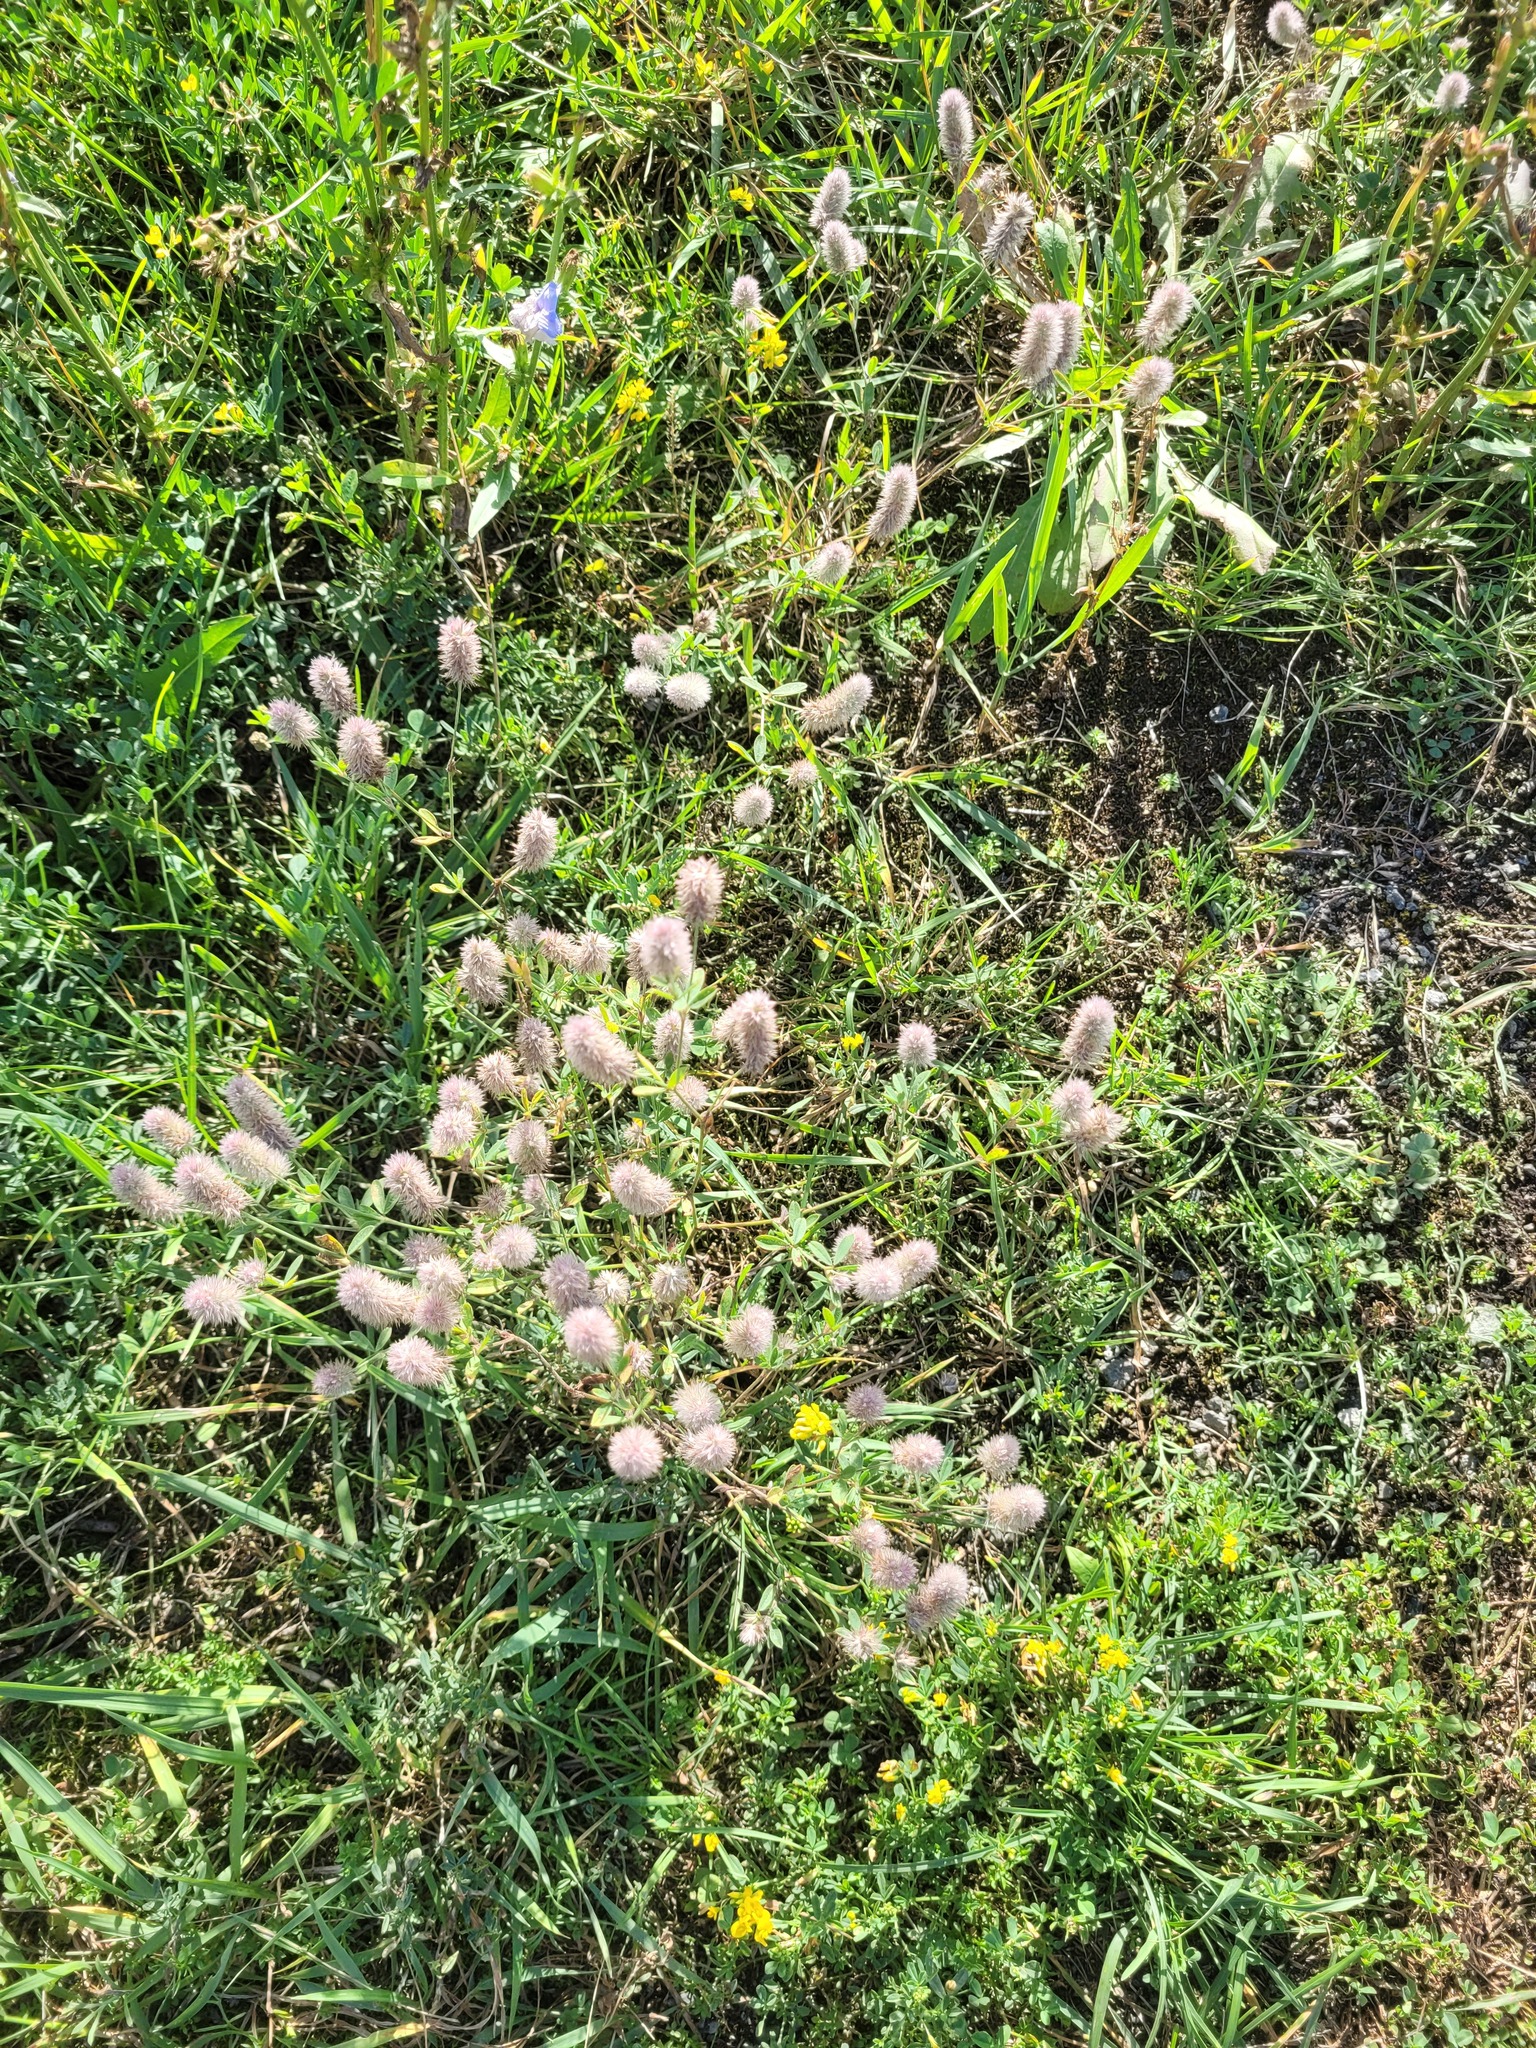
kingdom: Plantae
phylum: Tracheophyta
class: Magnoliopsida
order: Fabales
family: Fabaceae
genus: Trifolium
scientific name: Trifolium arvense
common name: Hare's-foot clover
